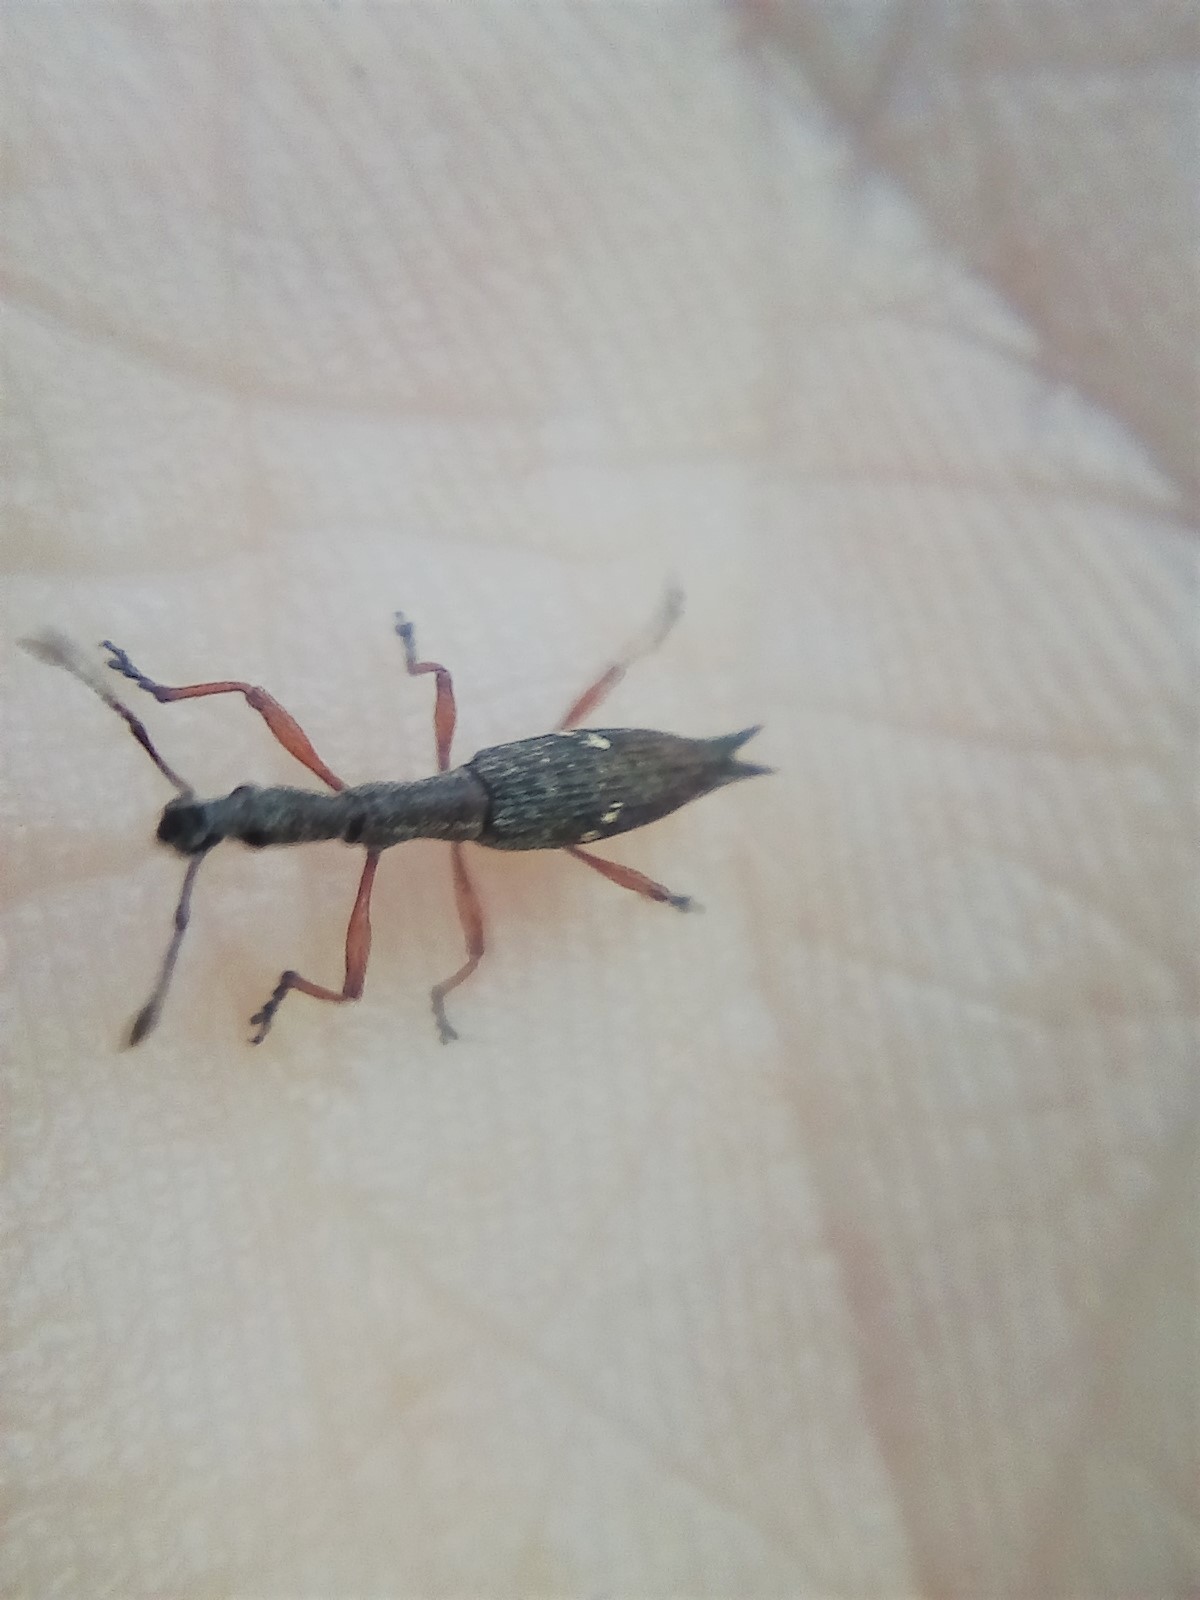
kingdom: Animalia
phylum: Arthropoda
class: Insecta
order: Coleoptera
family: Curculionidae
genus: Rhadinosomus
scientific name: Rhadinosomus acuminatus
